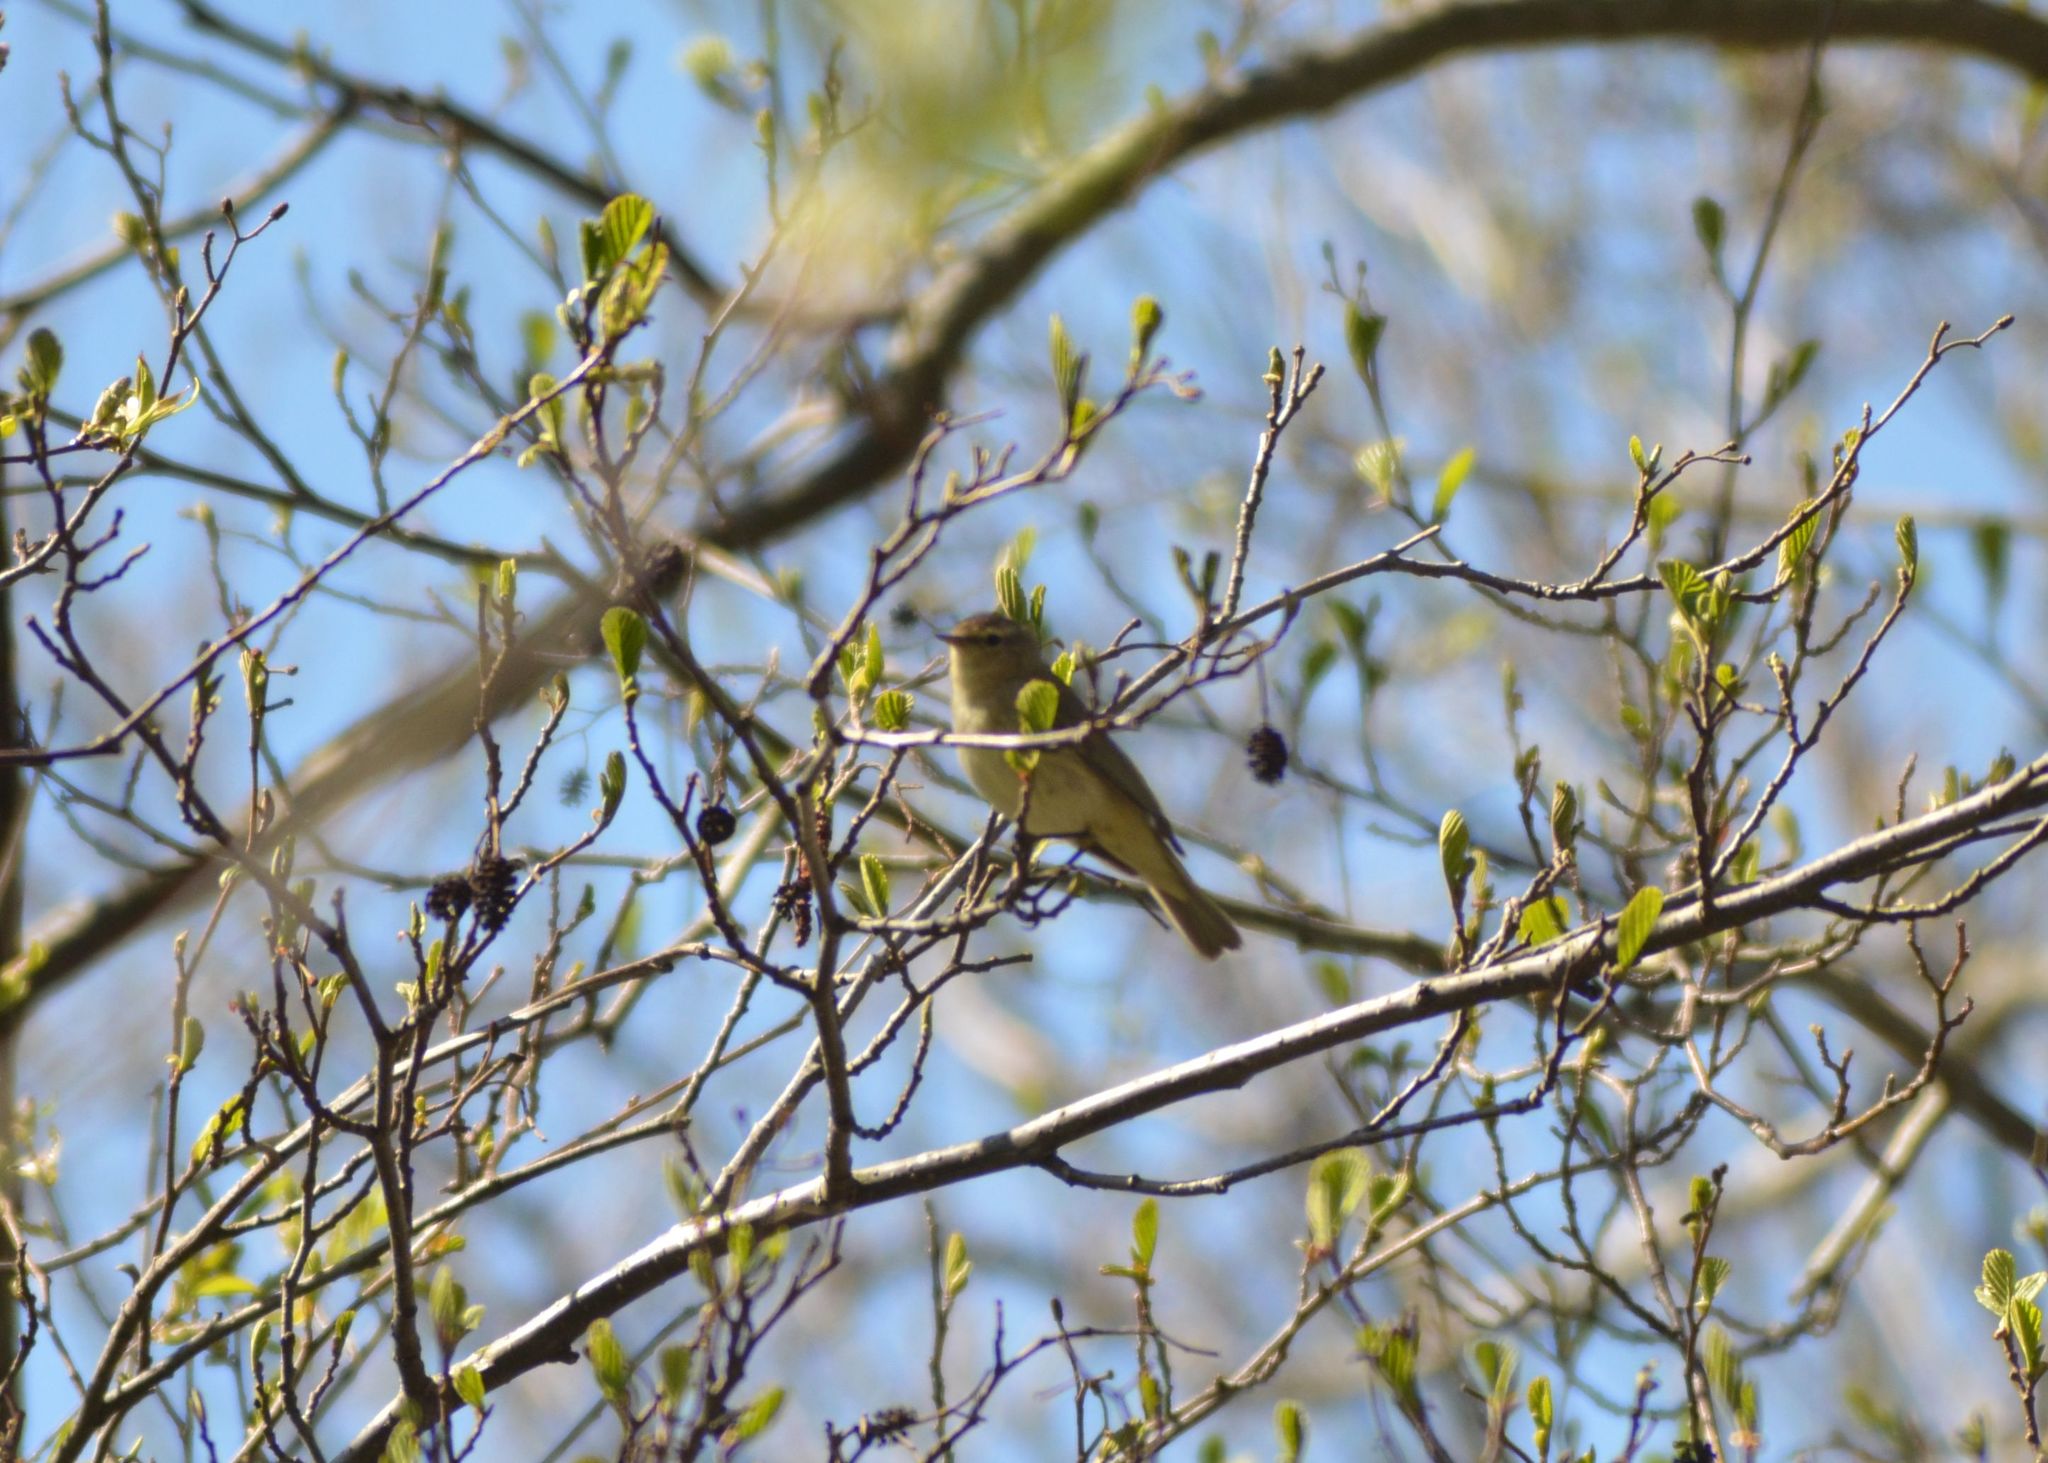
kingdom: Animalia
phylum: Chordata
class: Aves
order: Passeriformes
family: Phylloscopidae
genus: Phylloscopus
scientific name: Phylloscopus collybita
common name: Common chiffchaff
